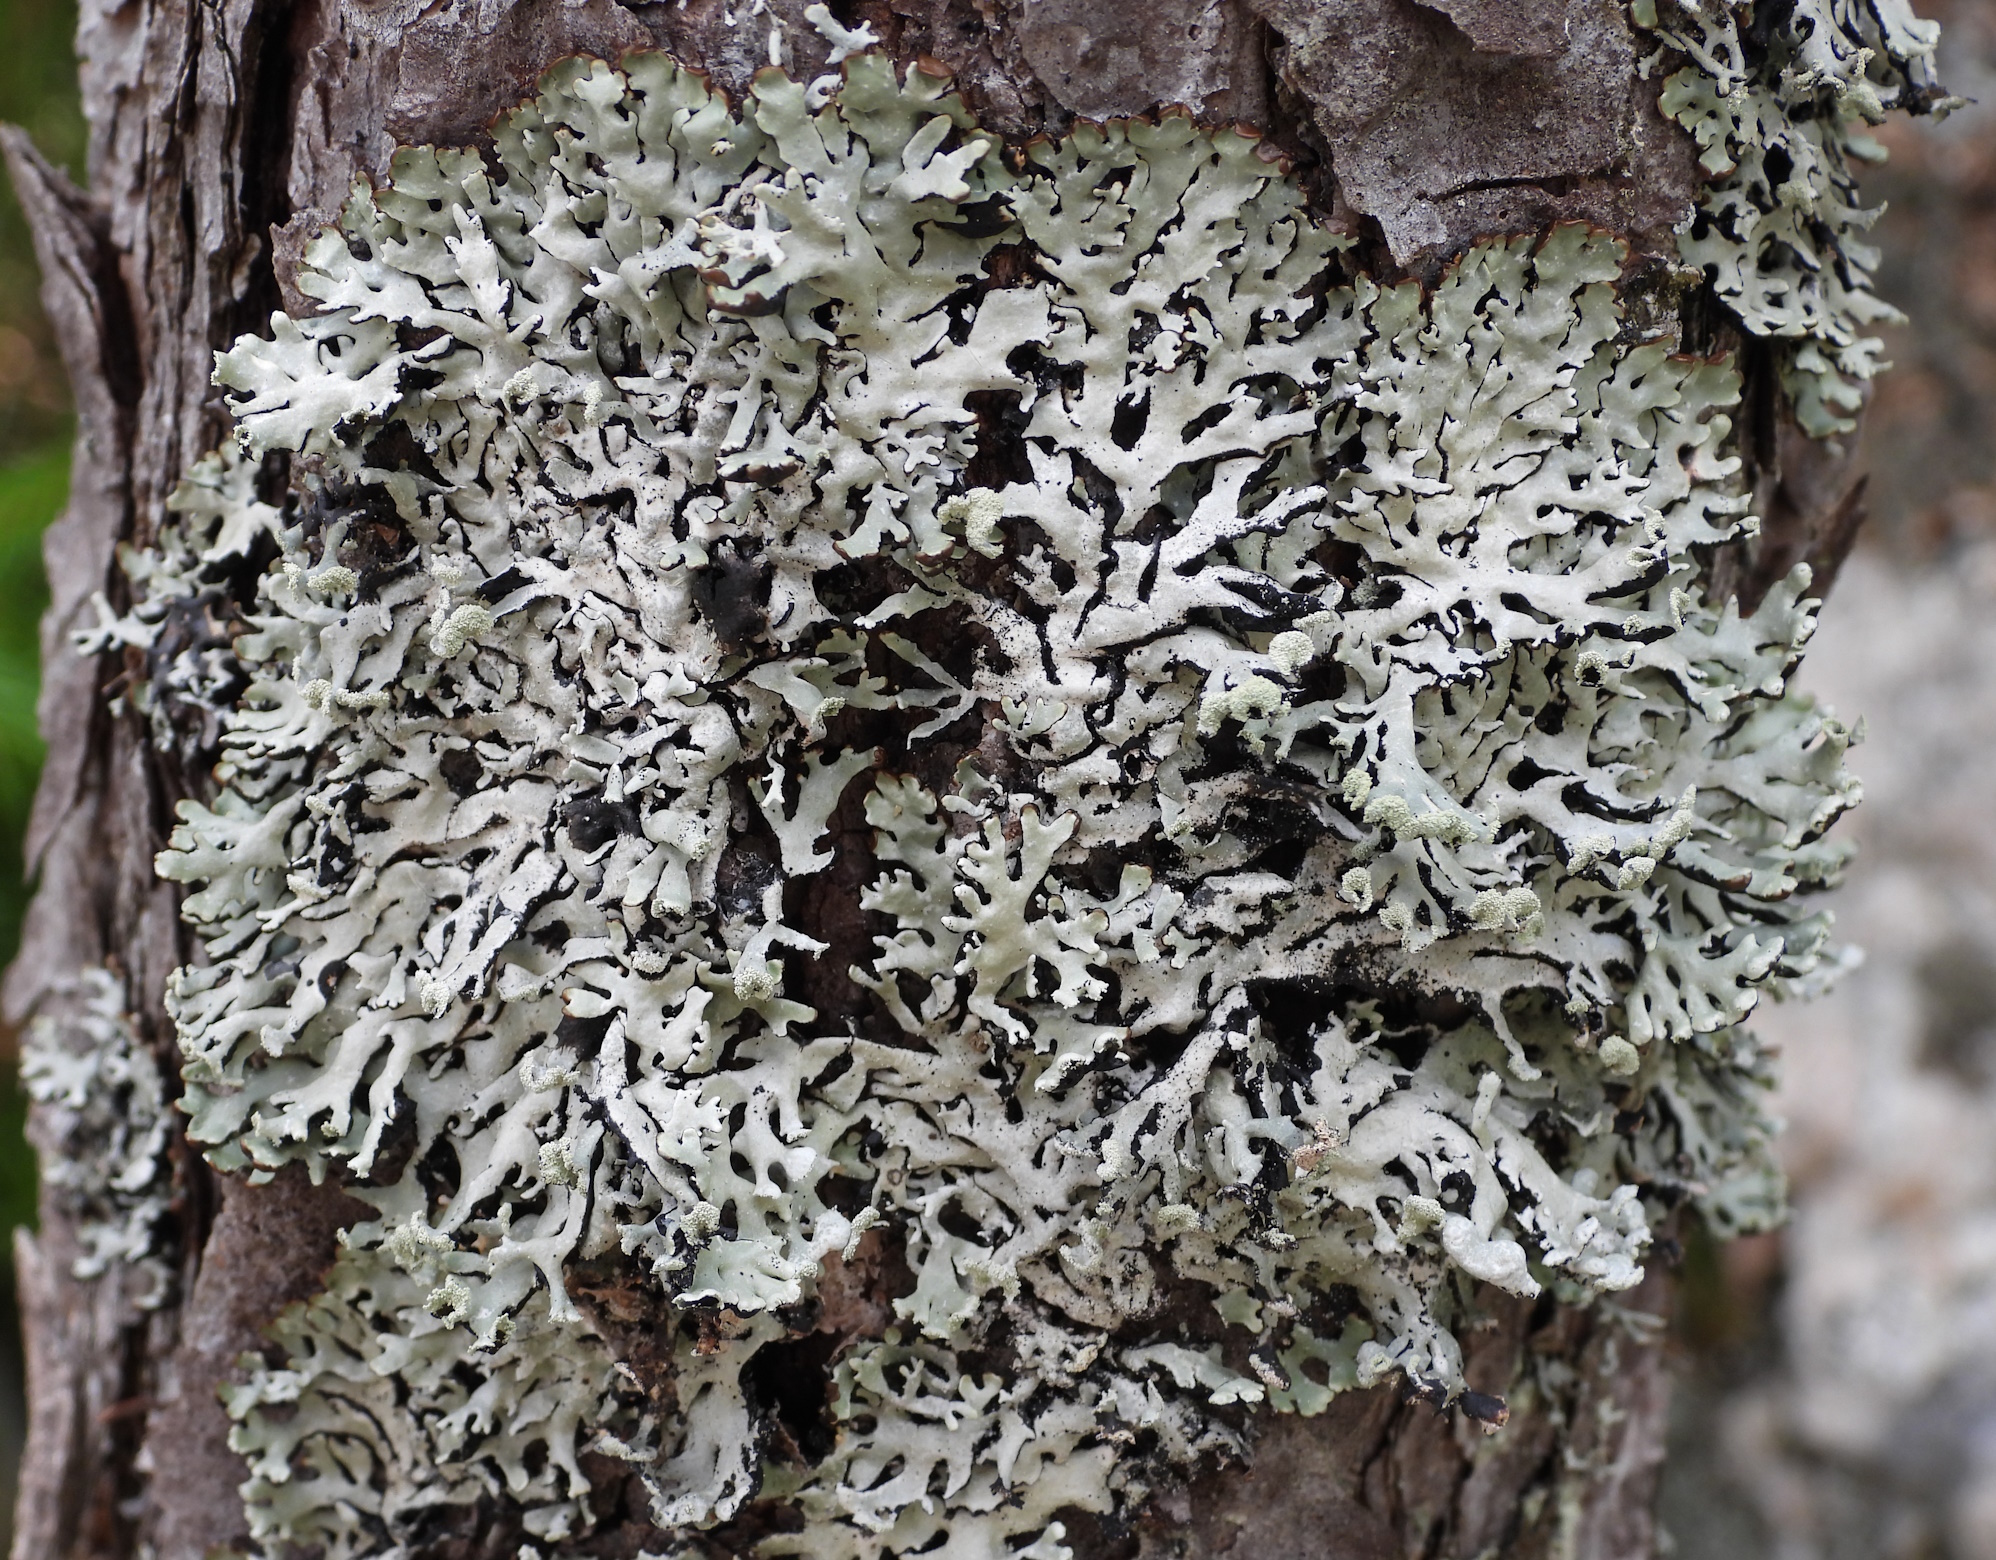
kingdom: Fungi
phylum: Ascomycota
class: Lecanoromycetes
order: Lecanorales
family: Parmeliaceae
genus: Hypogymnia
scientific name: Hypogymnia physodes
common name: Dark crottle
